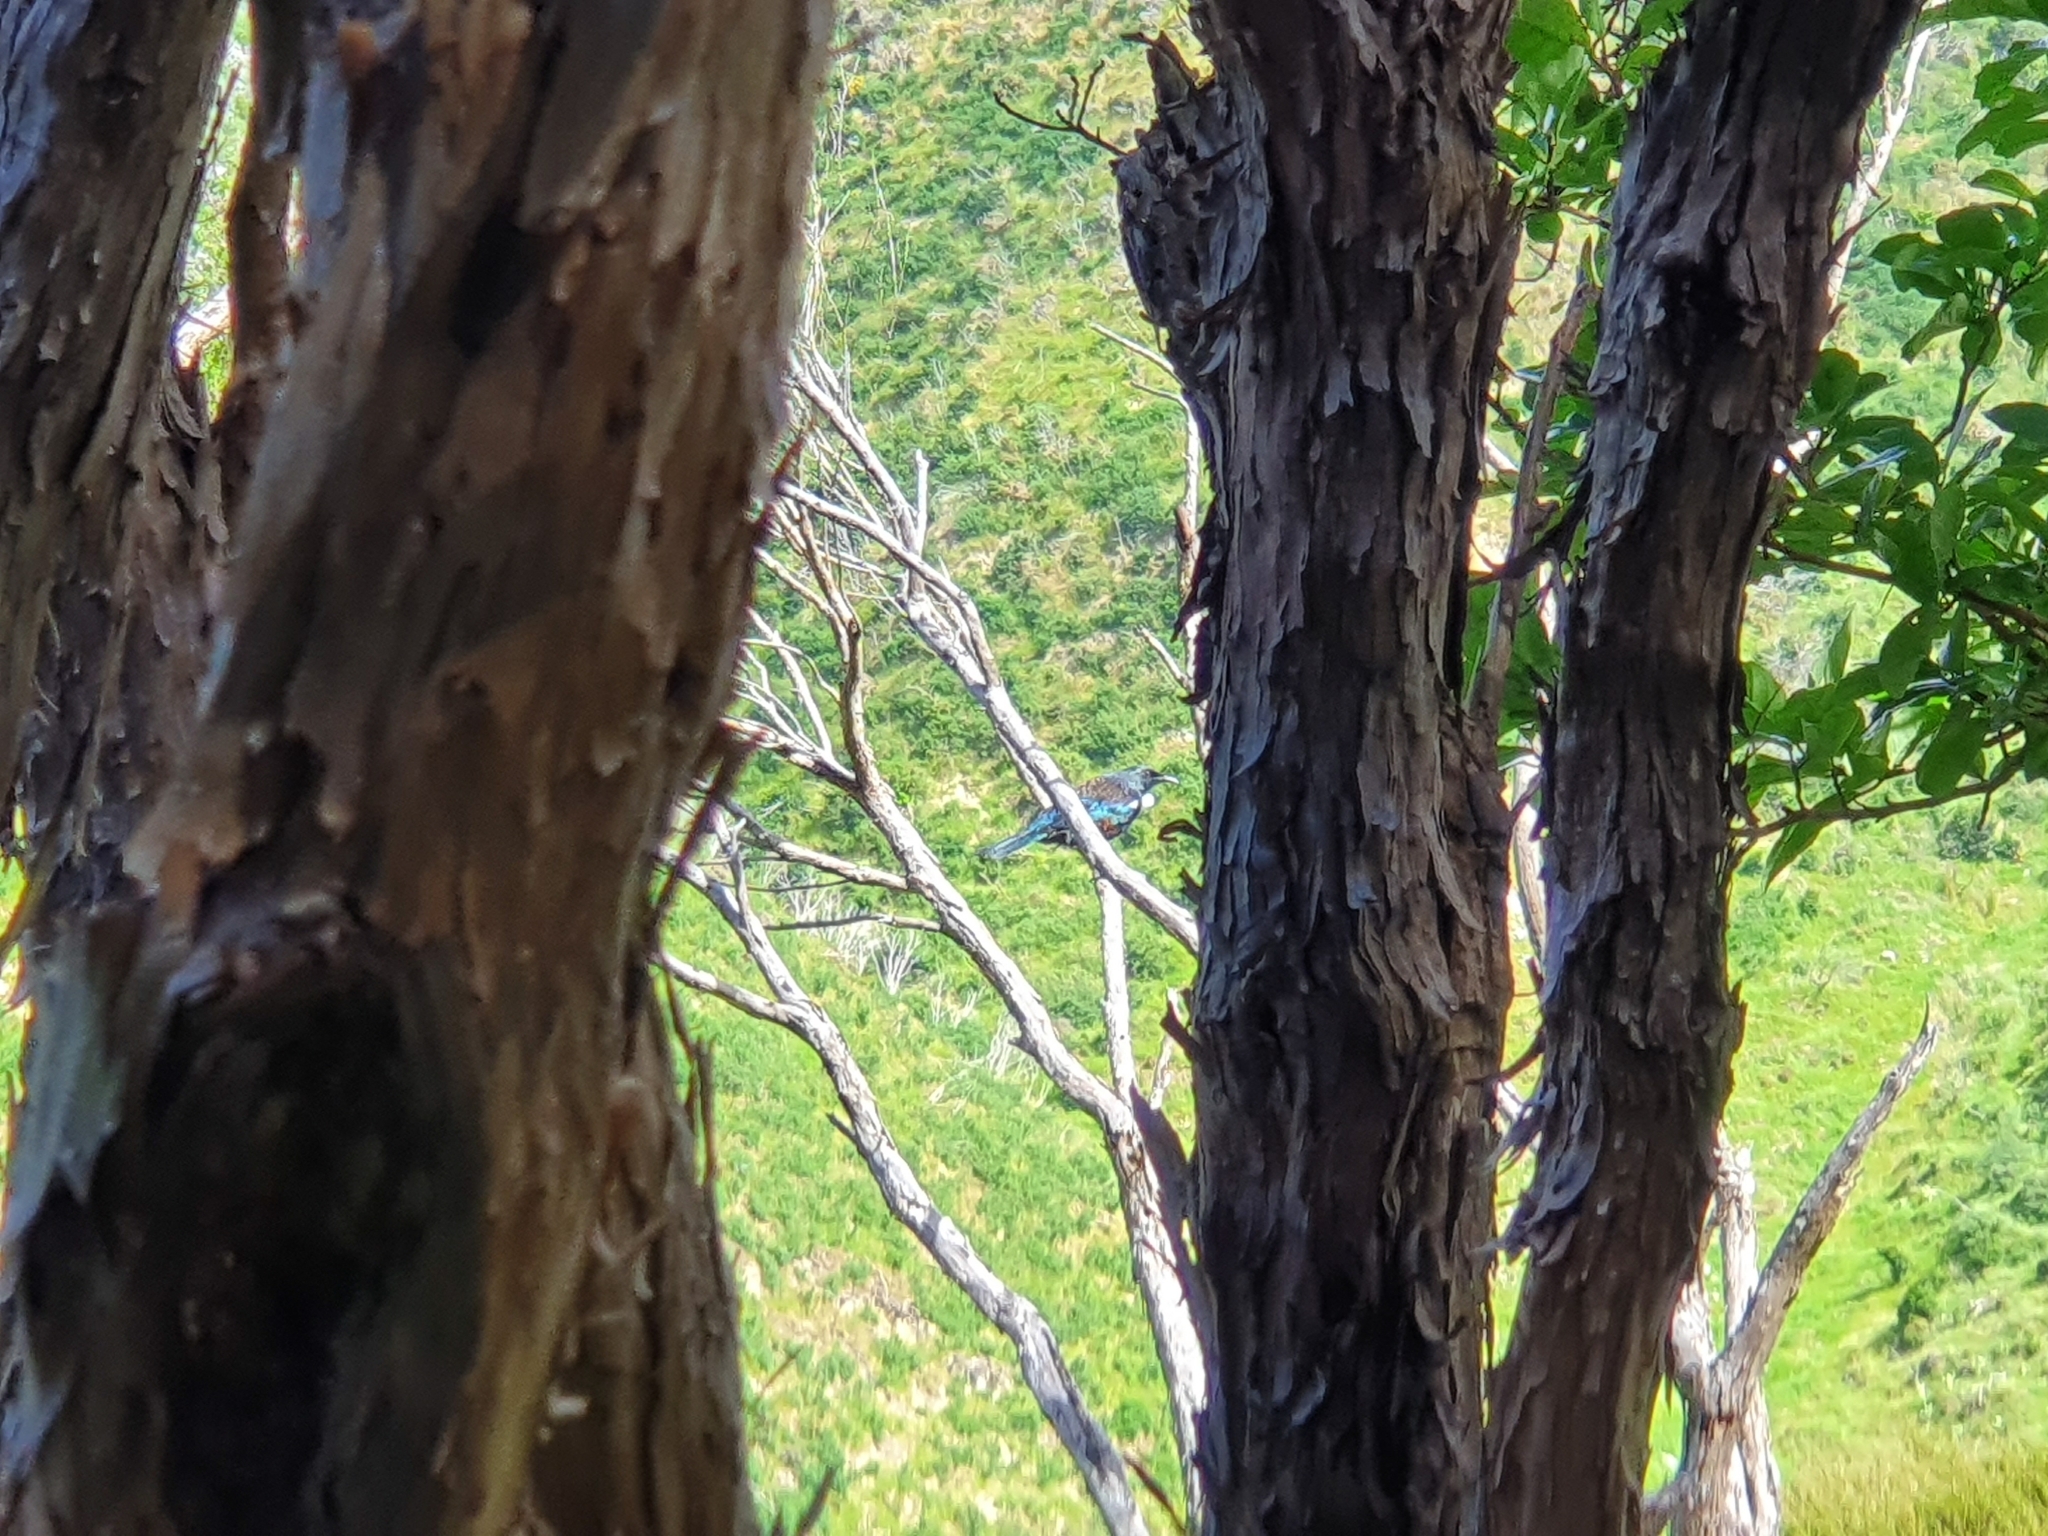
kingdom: Animalia
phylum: Chordata
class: Aves
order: Passeriformes
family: Meliphagidae
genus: Prosthemadera
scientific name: Prosthemadera novaeseelandiae
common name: Tui
